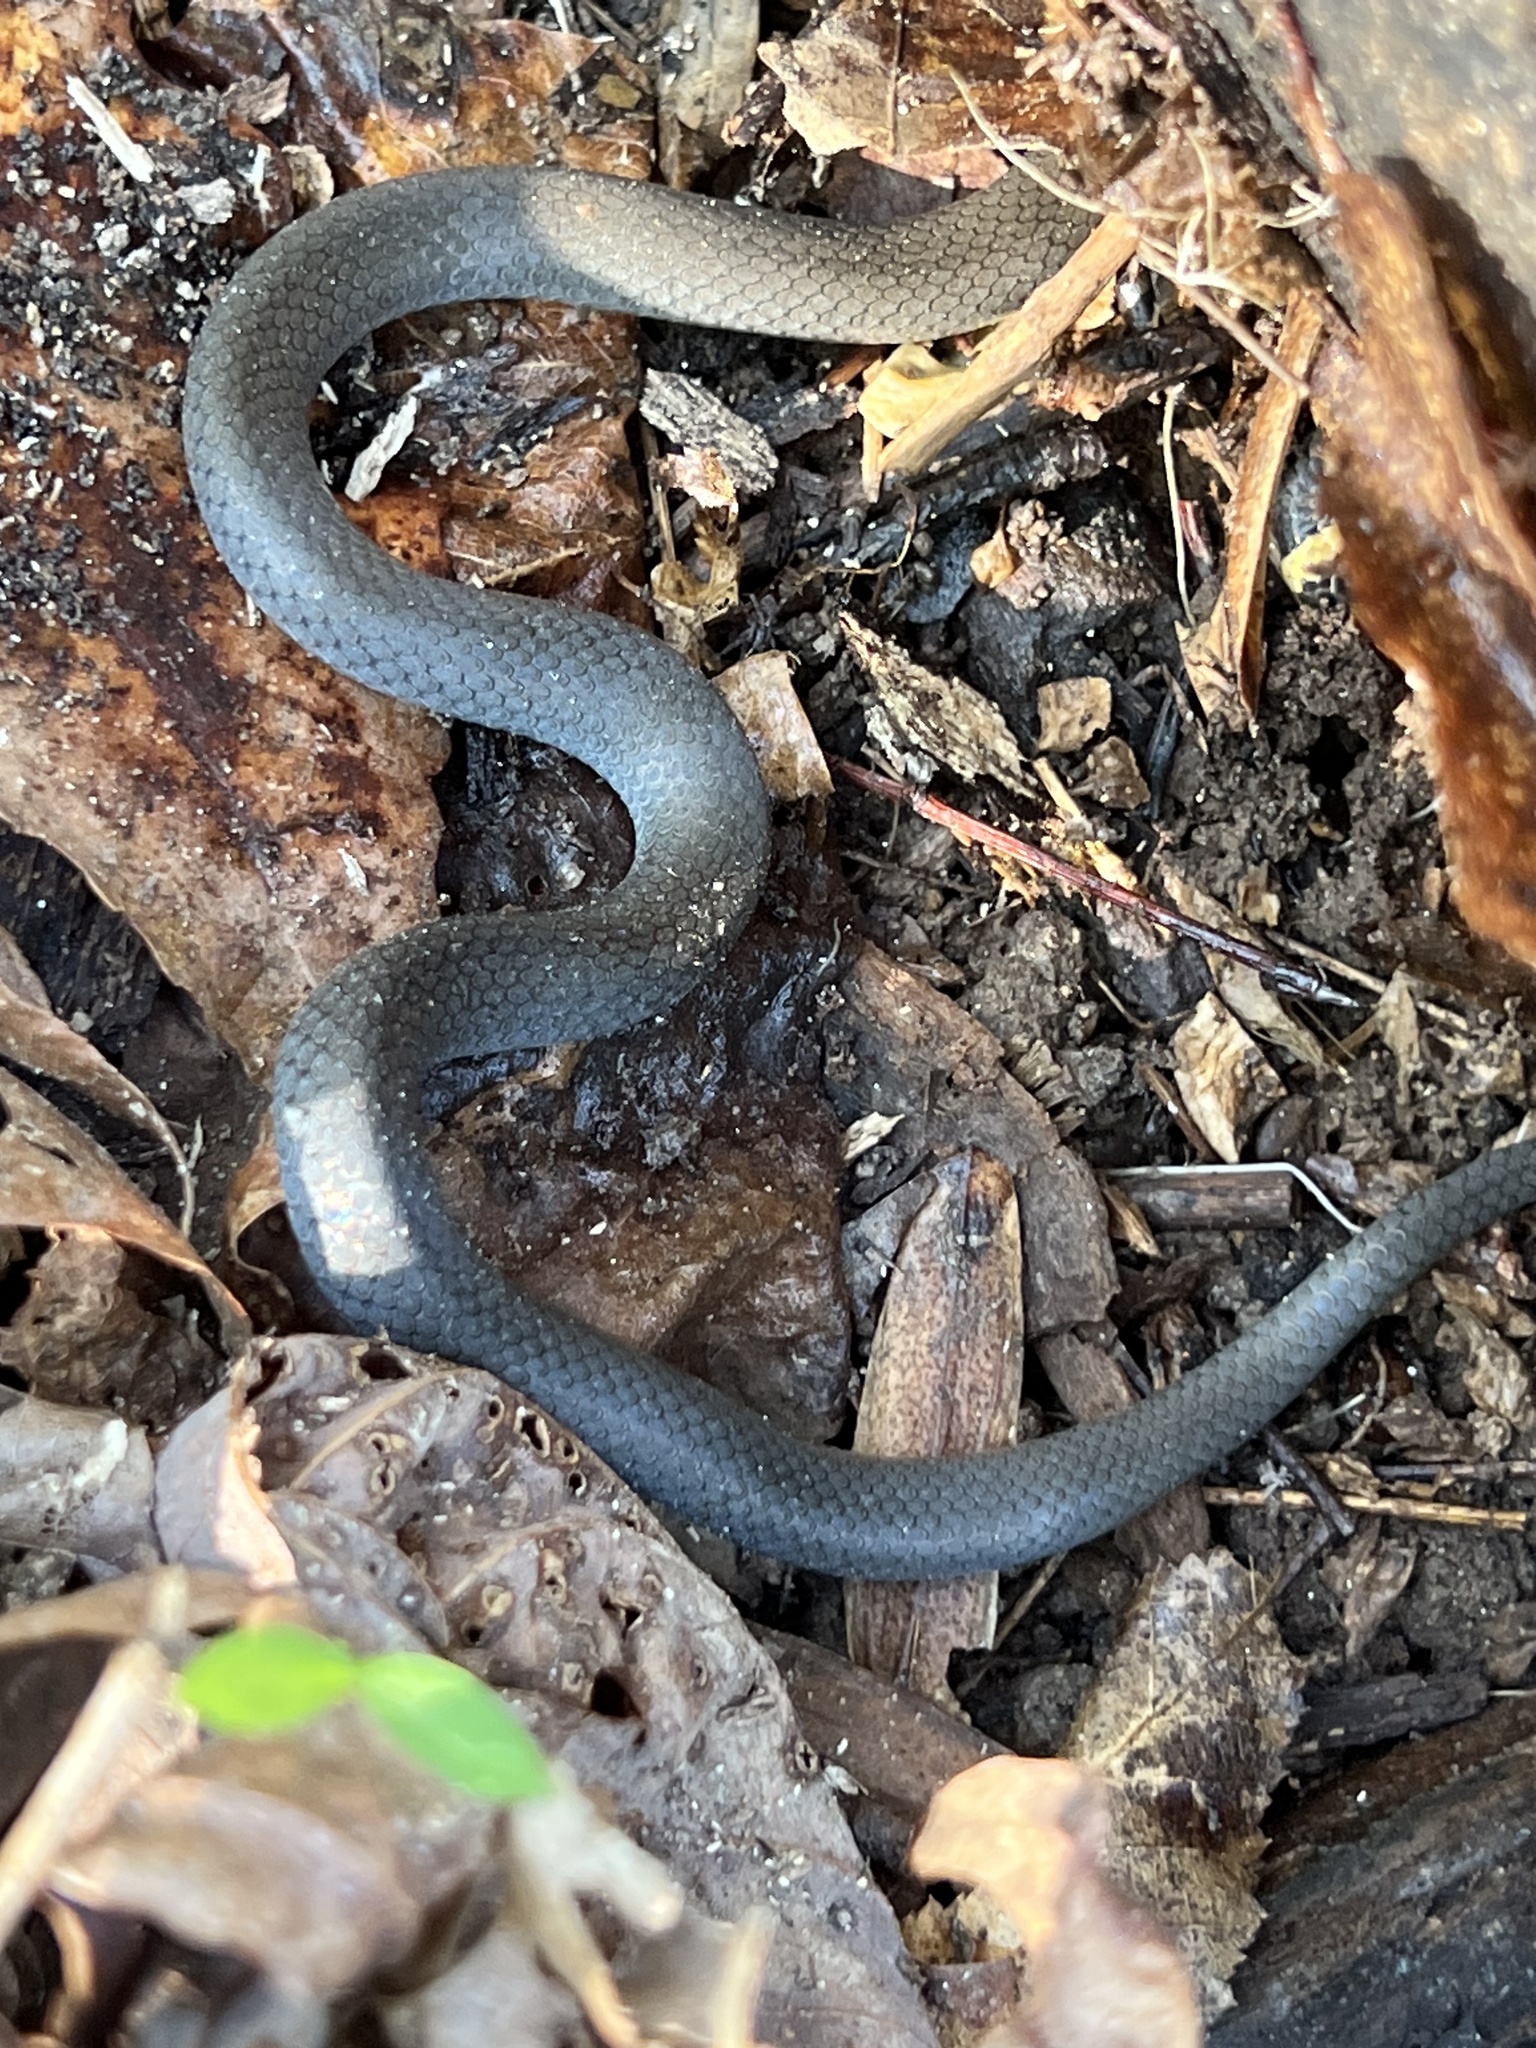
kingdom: Animalia
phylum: Chordata
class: Squamata
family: Colubridae
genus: Diadophis
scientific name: Diadophis punctatus
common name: Ringneck snake
